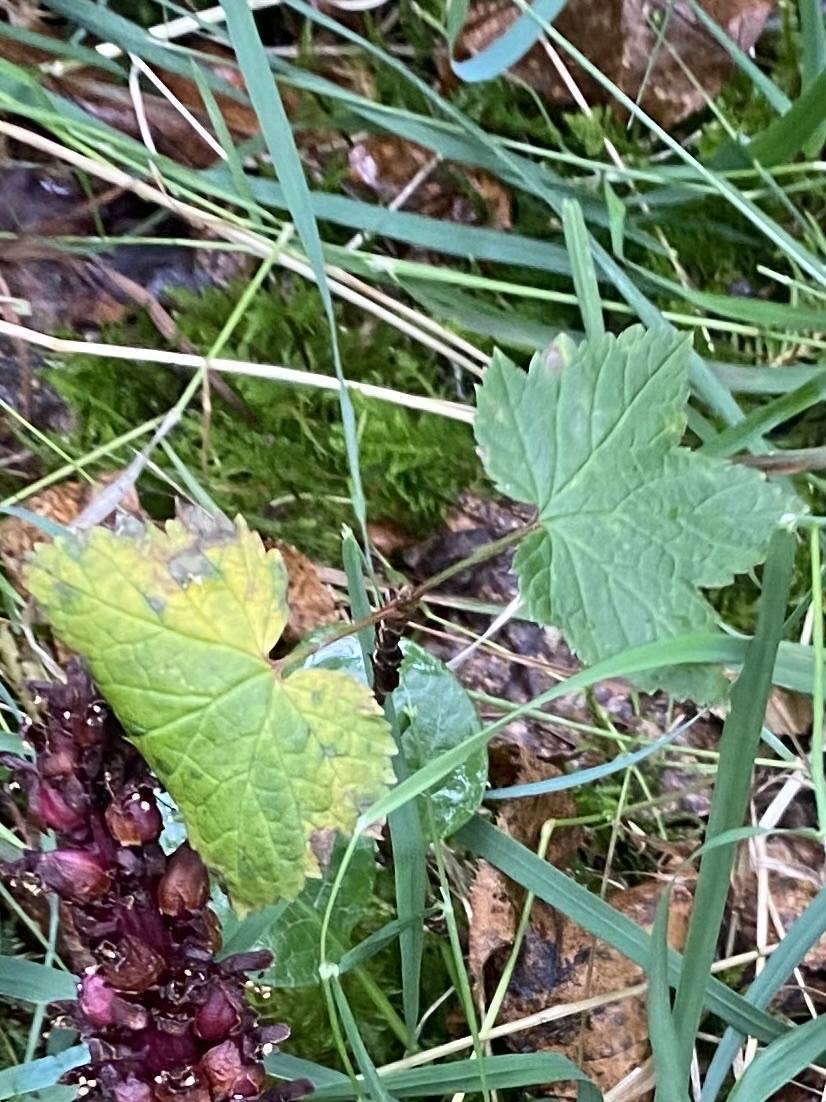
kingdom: Plantae
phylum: Tracheophyta
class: Magnoliopsida
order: Lamiales
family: Orobanchaceae
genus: Boschniakia
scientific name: Boschniakia rossica
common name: Poque
